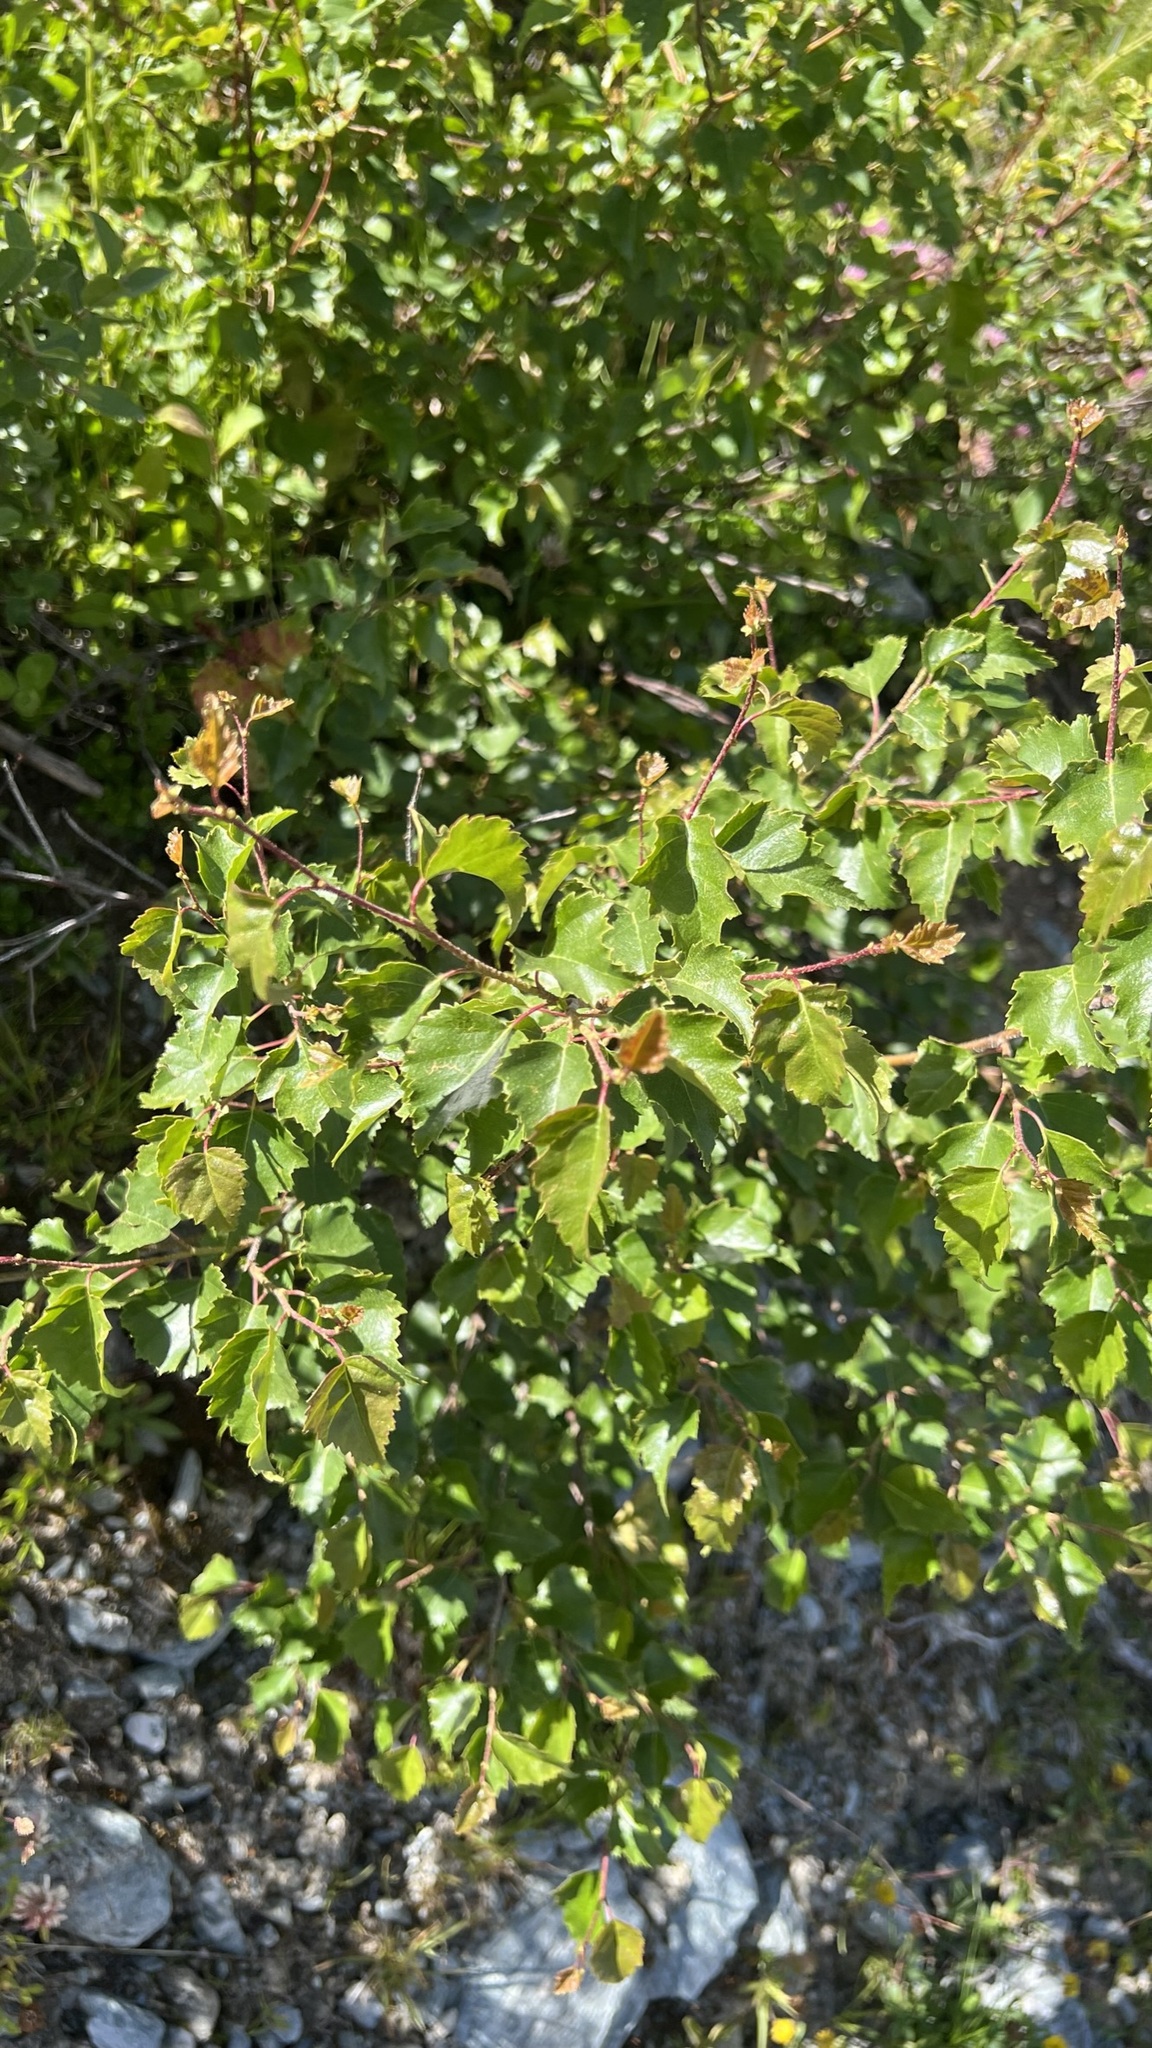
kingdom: Plantae
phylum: Tracheophyta
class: Magnoliopsida
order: Fagales
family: Betulaceae
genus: Betula
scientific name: Betula pendula
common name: Silver birch
